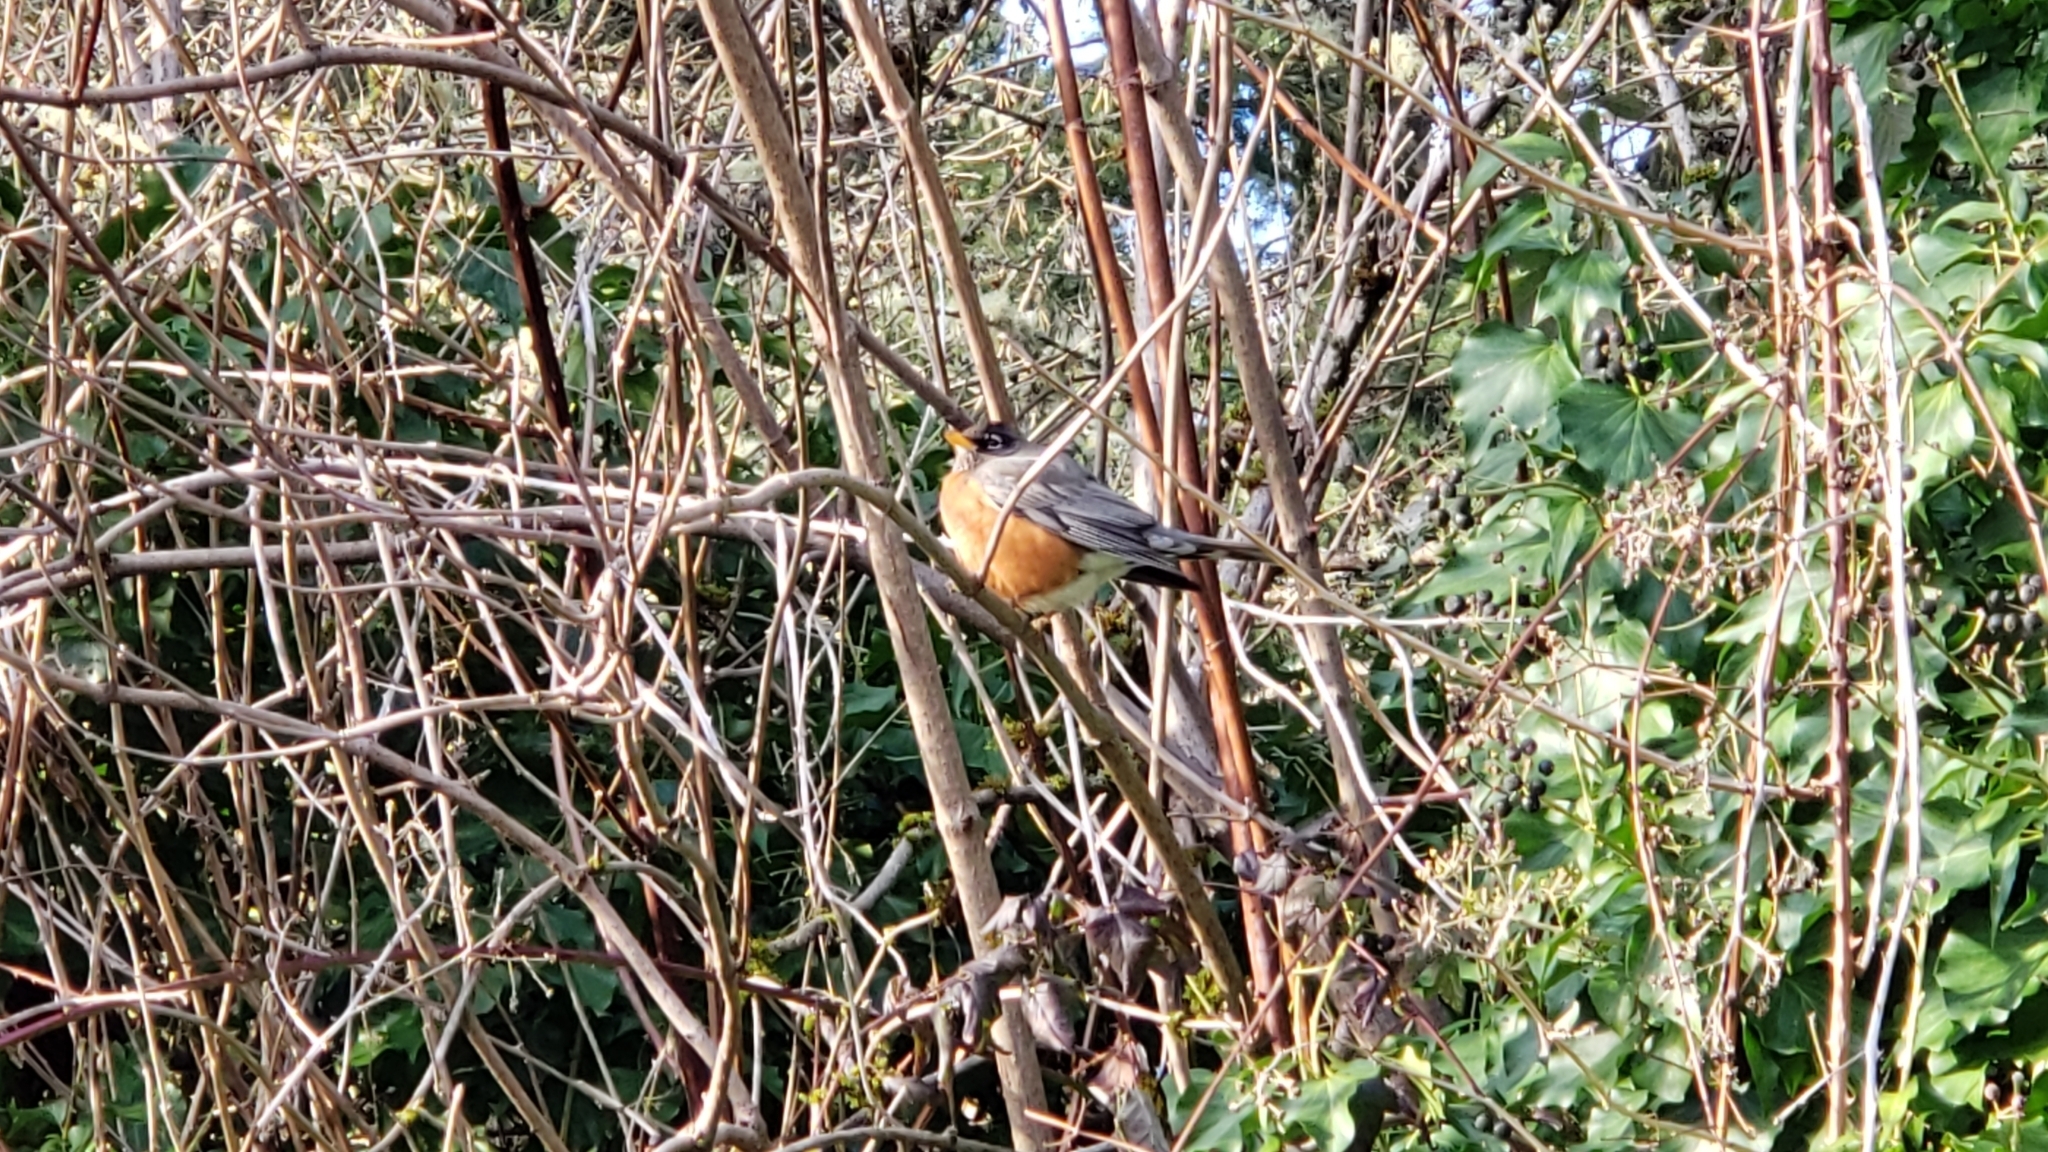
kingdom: Animalia
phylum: Chordata
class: Aves
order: Passeriformes
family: Turdidae
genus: Turdus
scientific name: Turdus migratorius
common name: American robin
